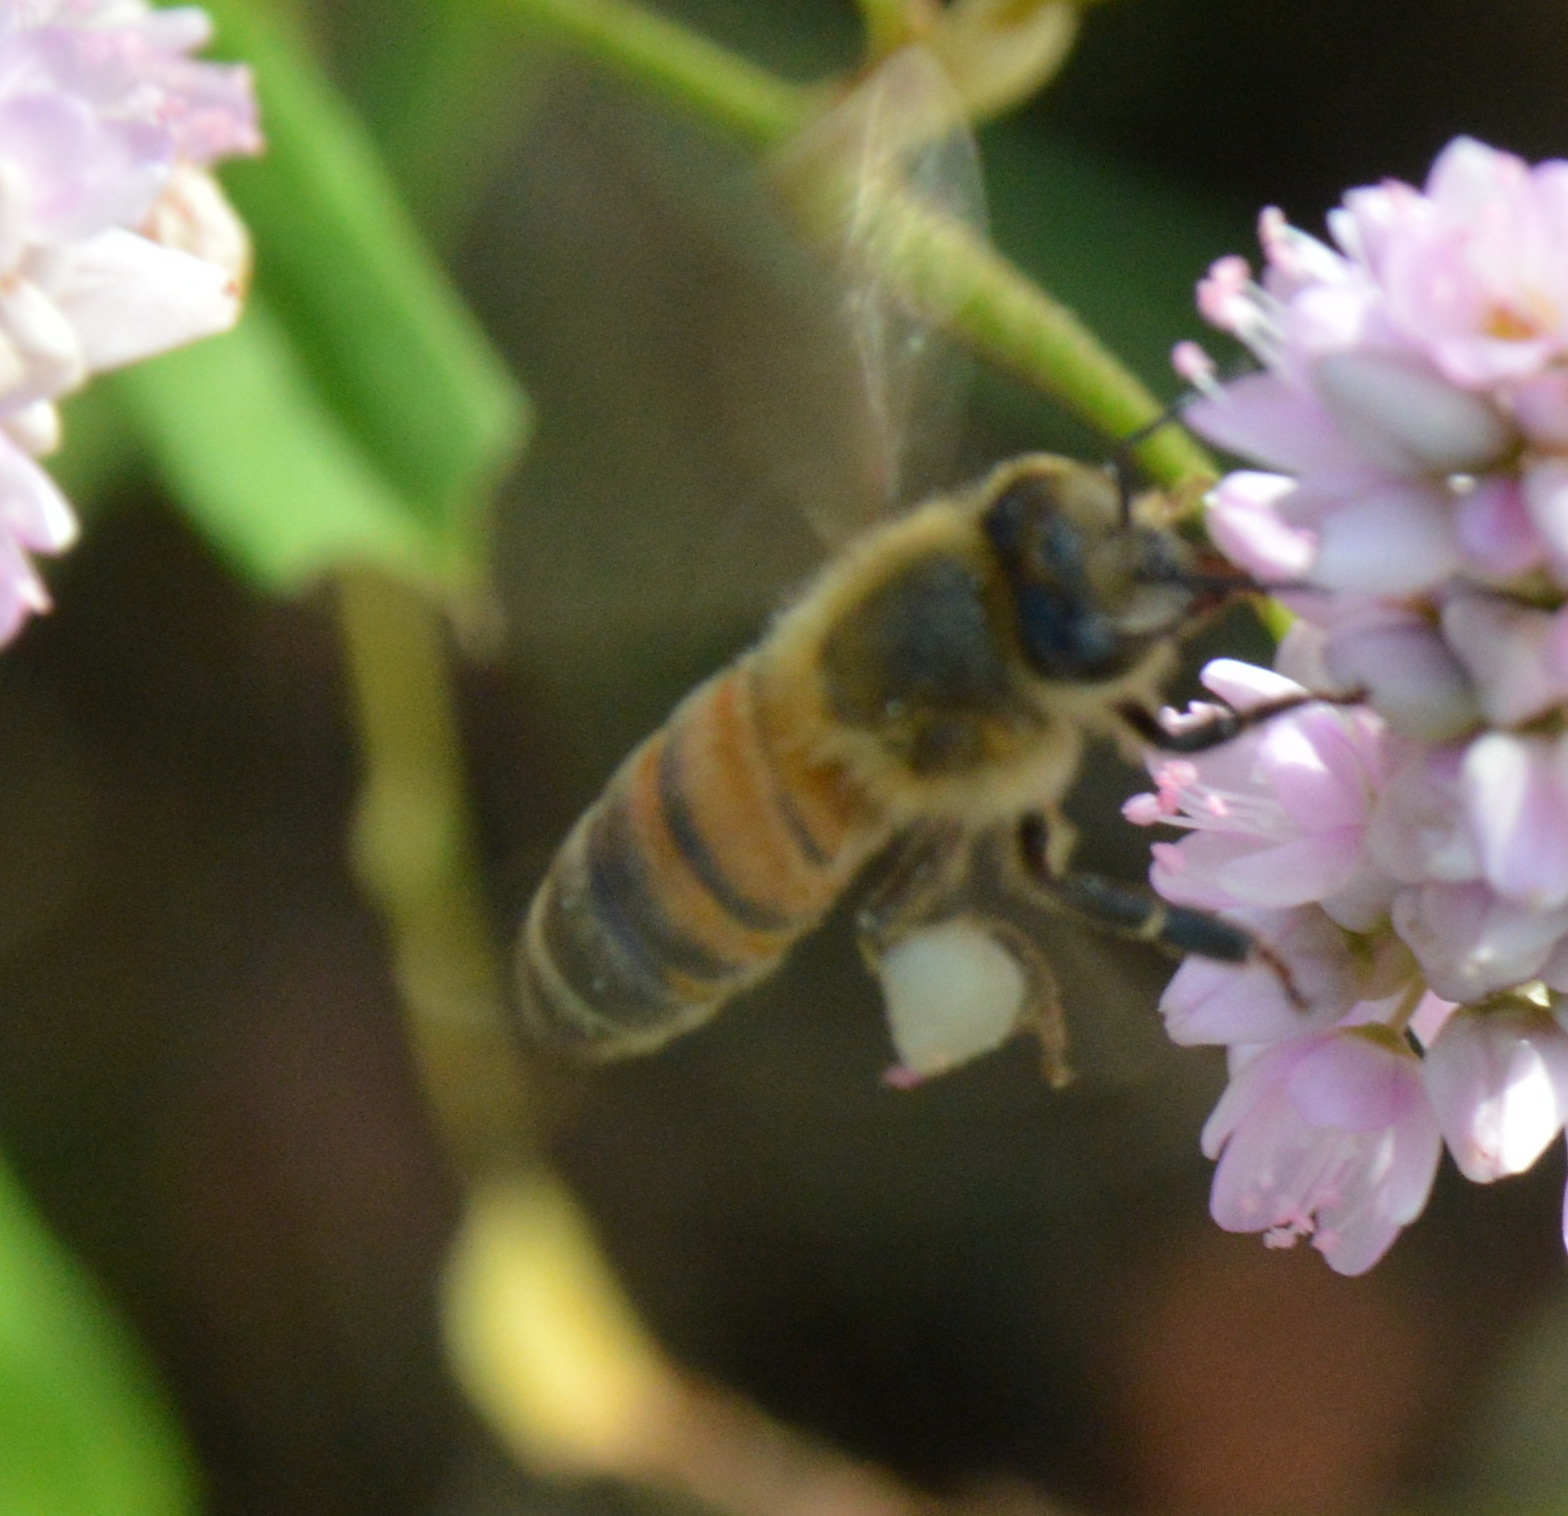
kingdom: Animalia
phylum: Arthropoda
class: Insecta
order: Hymenoptera
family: Apidae
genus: Apis
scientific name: Apis mellifera
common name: Honey bee
